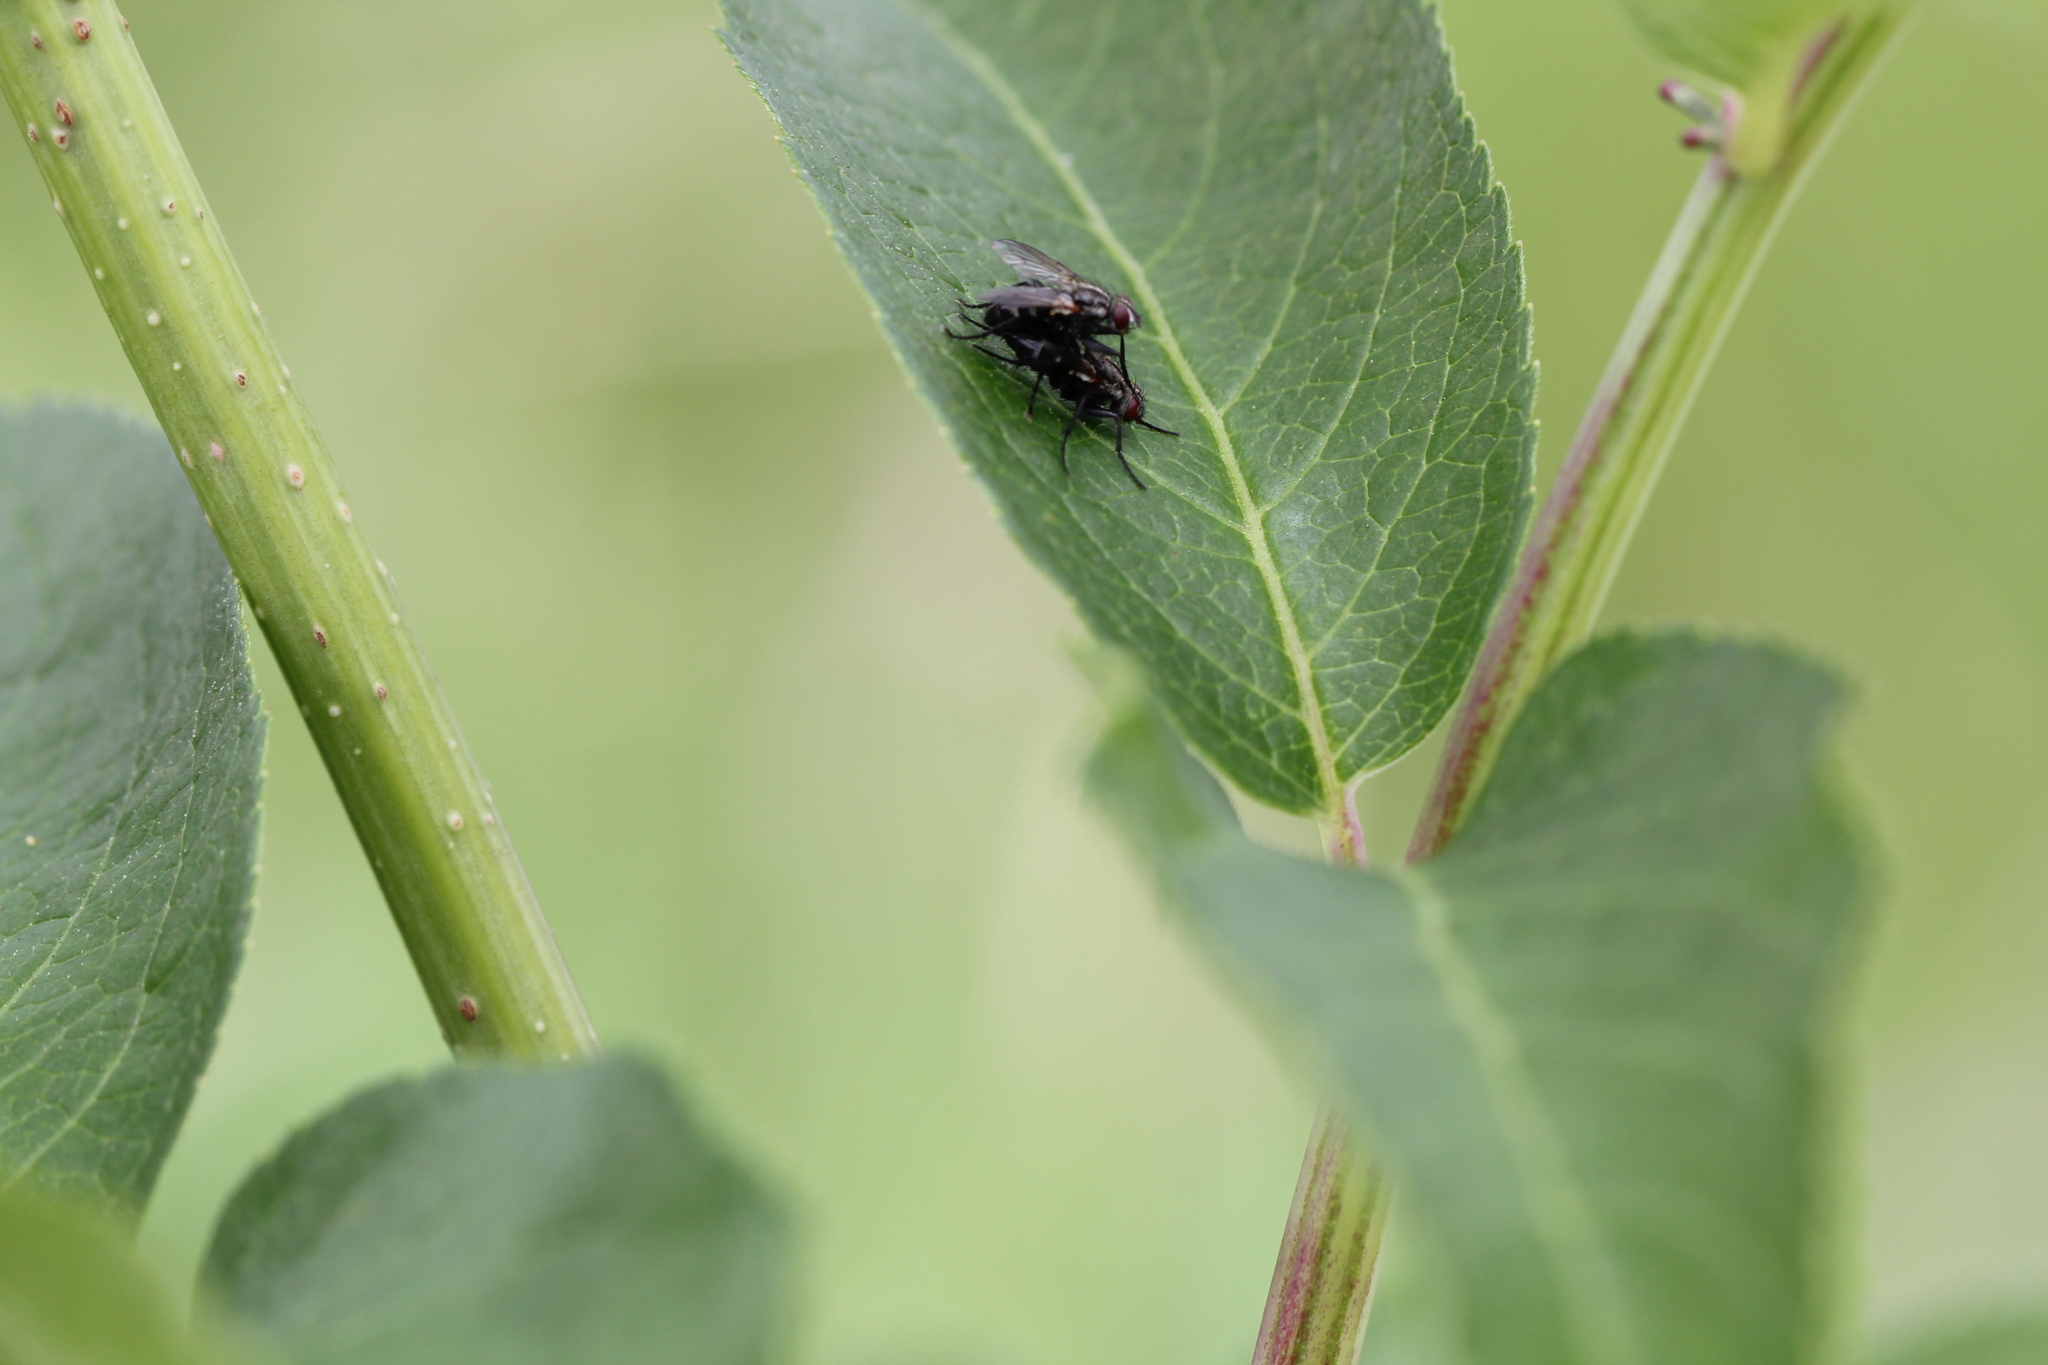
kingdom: Animalia
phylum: Arthropoda
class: Insecta
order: Diptera
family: Calliphoridae
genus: Stevenia
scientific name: Stevenia deceptoria
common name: Grizzled woodlouse-fly
